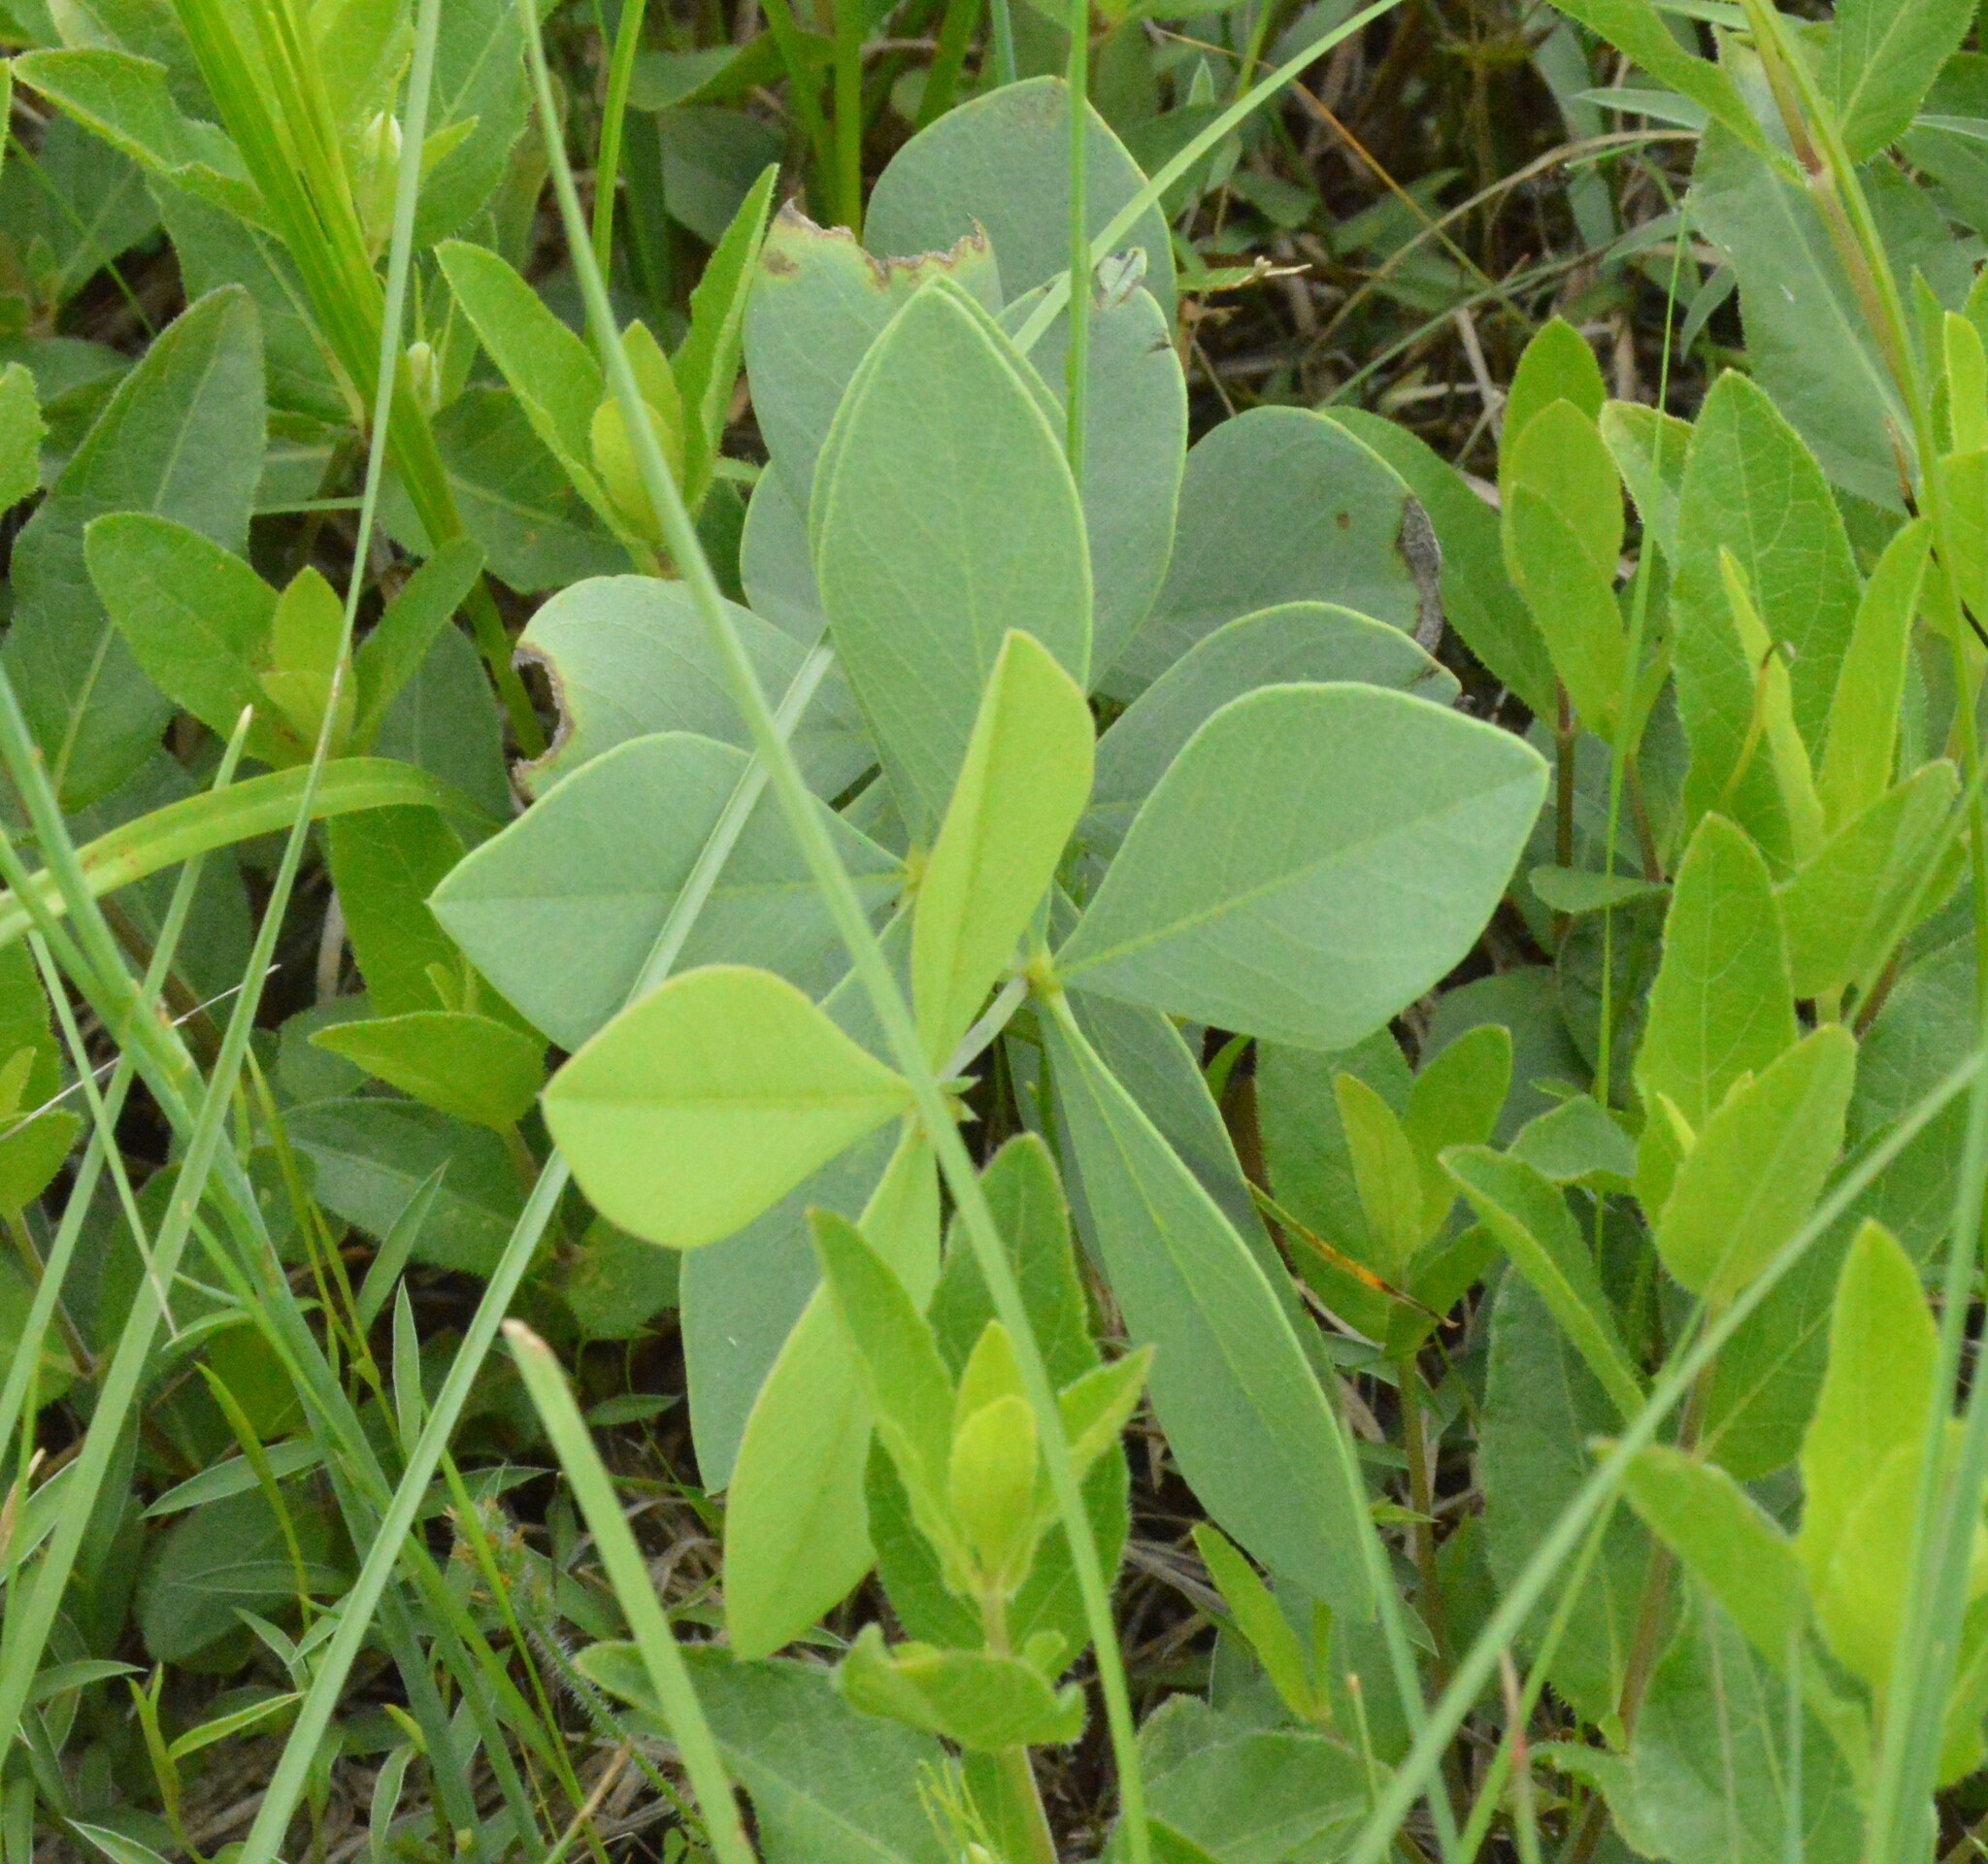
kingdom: Plantae
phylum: Tracheophyta
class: Magnoliopsida
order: Fabales
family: Fabaceae
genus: Baptisia
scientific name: Baptisia bracteata
